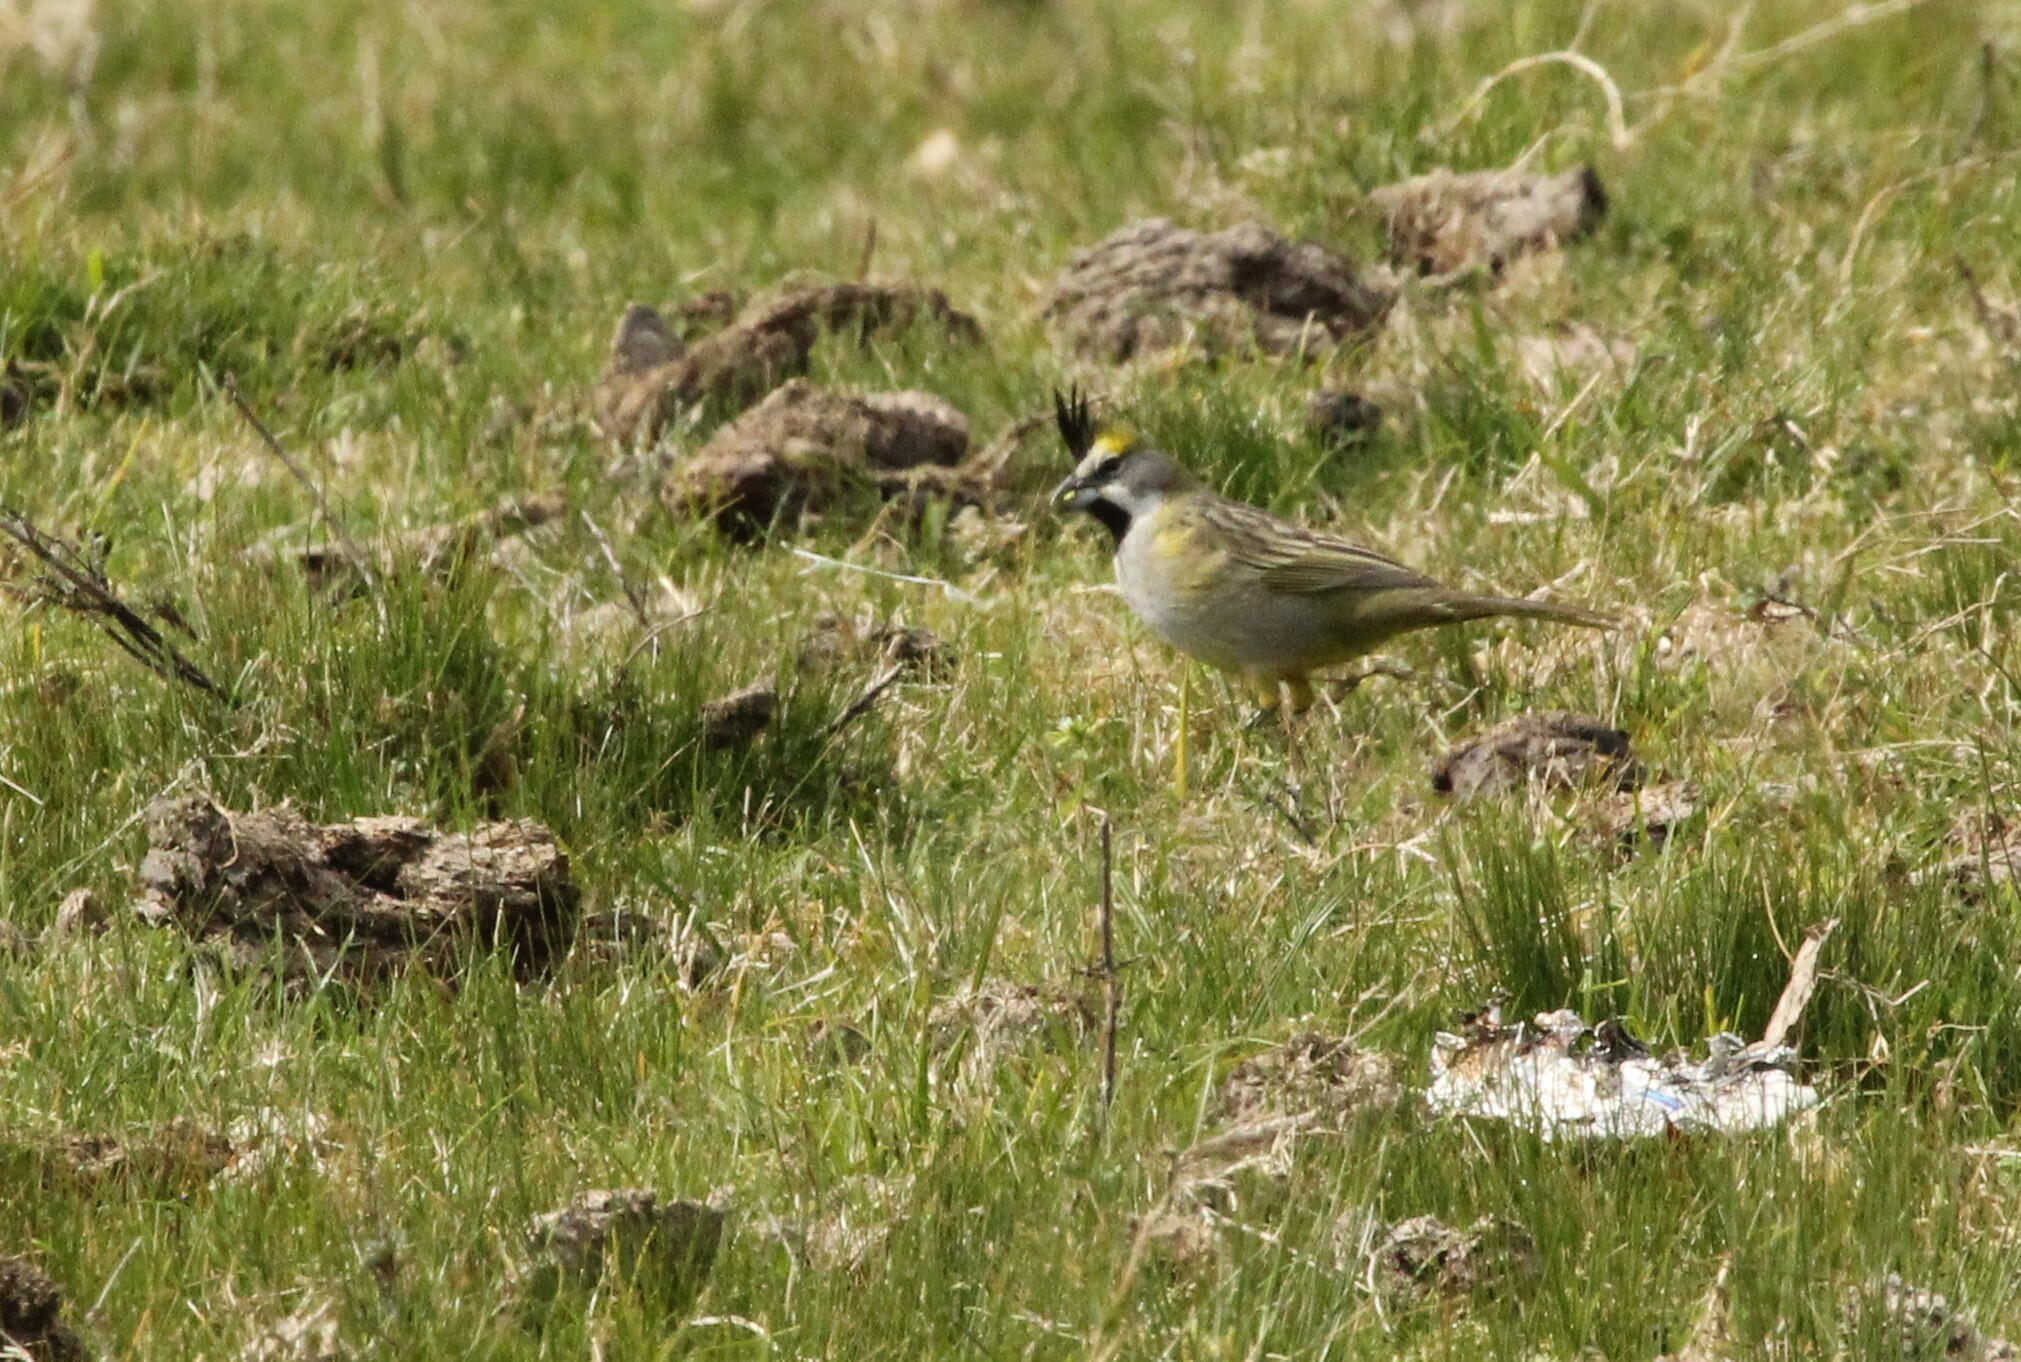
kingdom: Animalia
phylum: Chordata
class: Aves
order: Passeriformes
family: Thraupidae
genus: Gubernatrix
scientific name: Gubernatrix cristata
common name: Yellow cardinal
